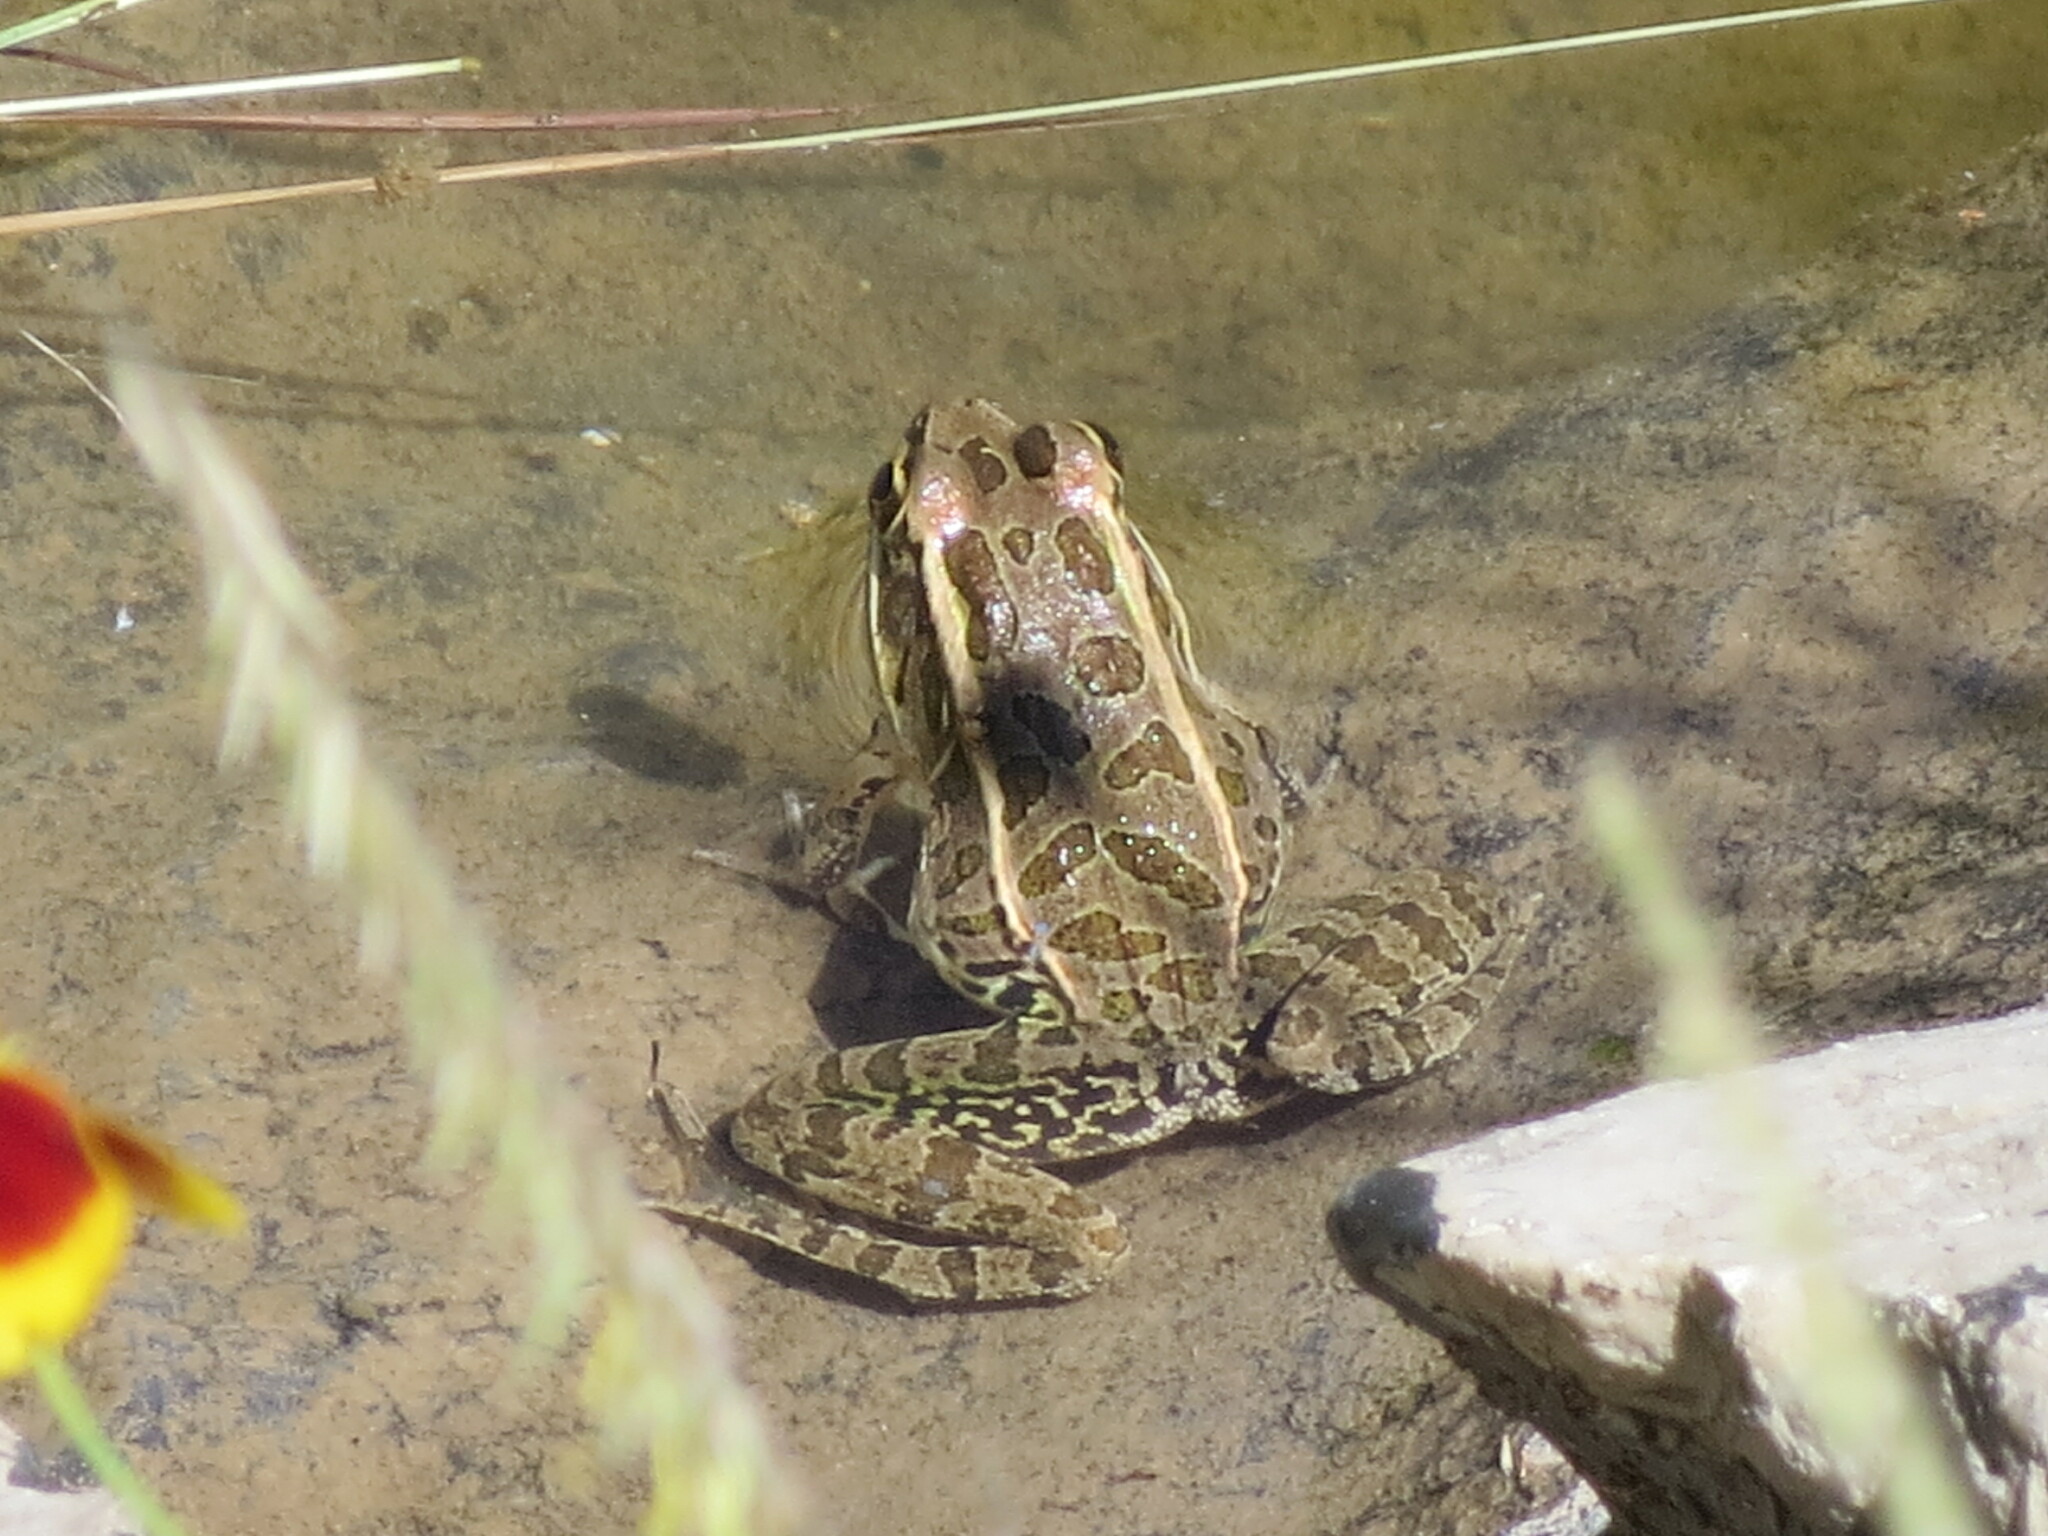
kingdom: Animalia
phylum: Chordata
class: Amphibia
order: Anura
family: Ranidae
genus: Lithobates
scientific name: Lithobates berlandieri
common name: Rio grande leopard frog
